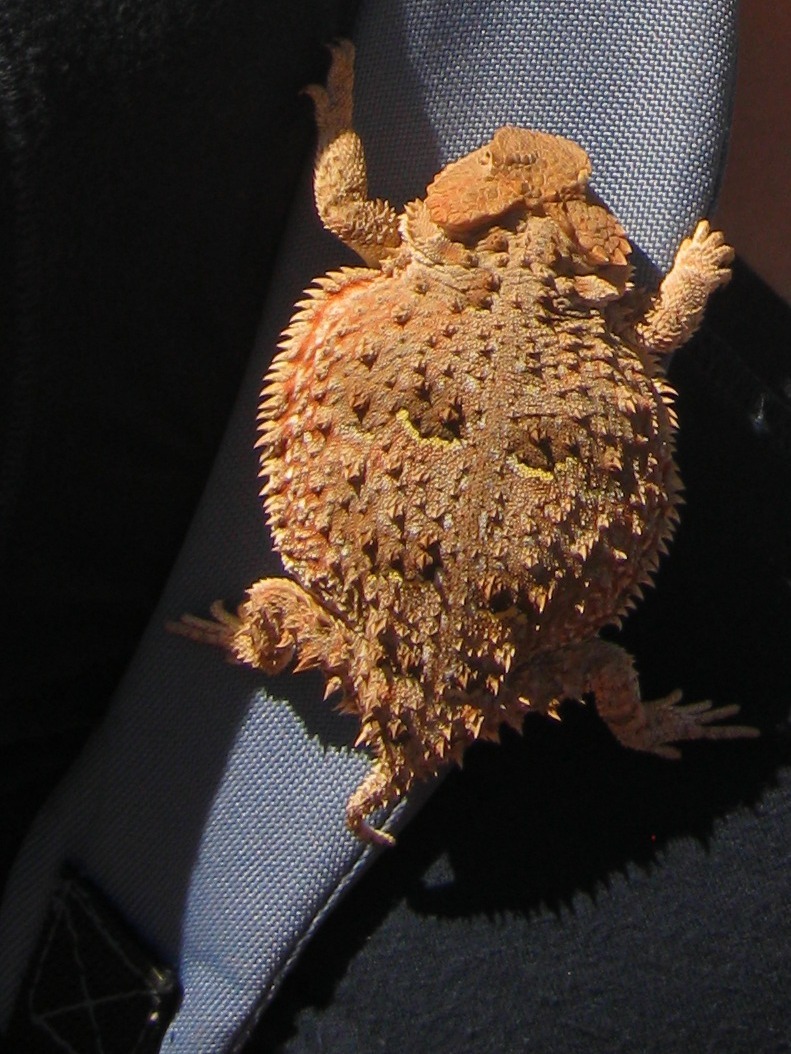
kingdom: Animalia
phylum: Chordata
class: Squamata
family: Phrynosomatidae
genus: Phrynosoma
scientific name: Phrynosoma hernandesi
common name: Greater short-horned lizard
